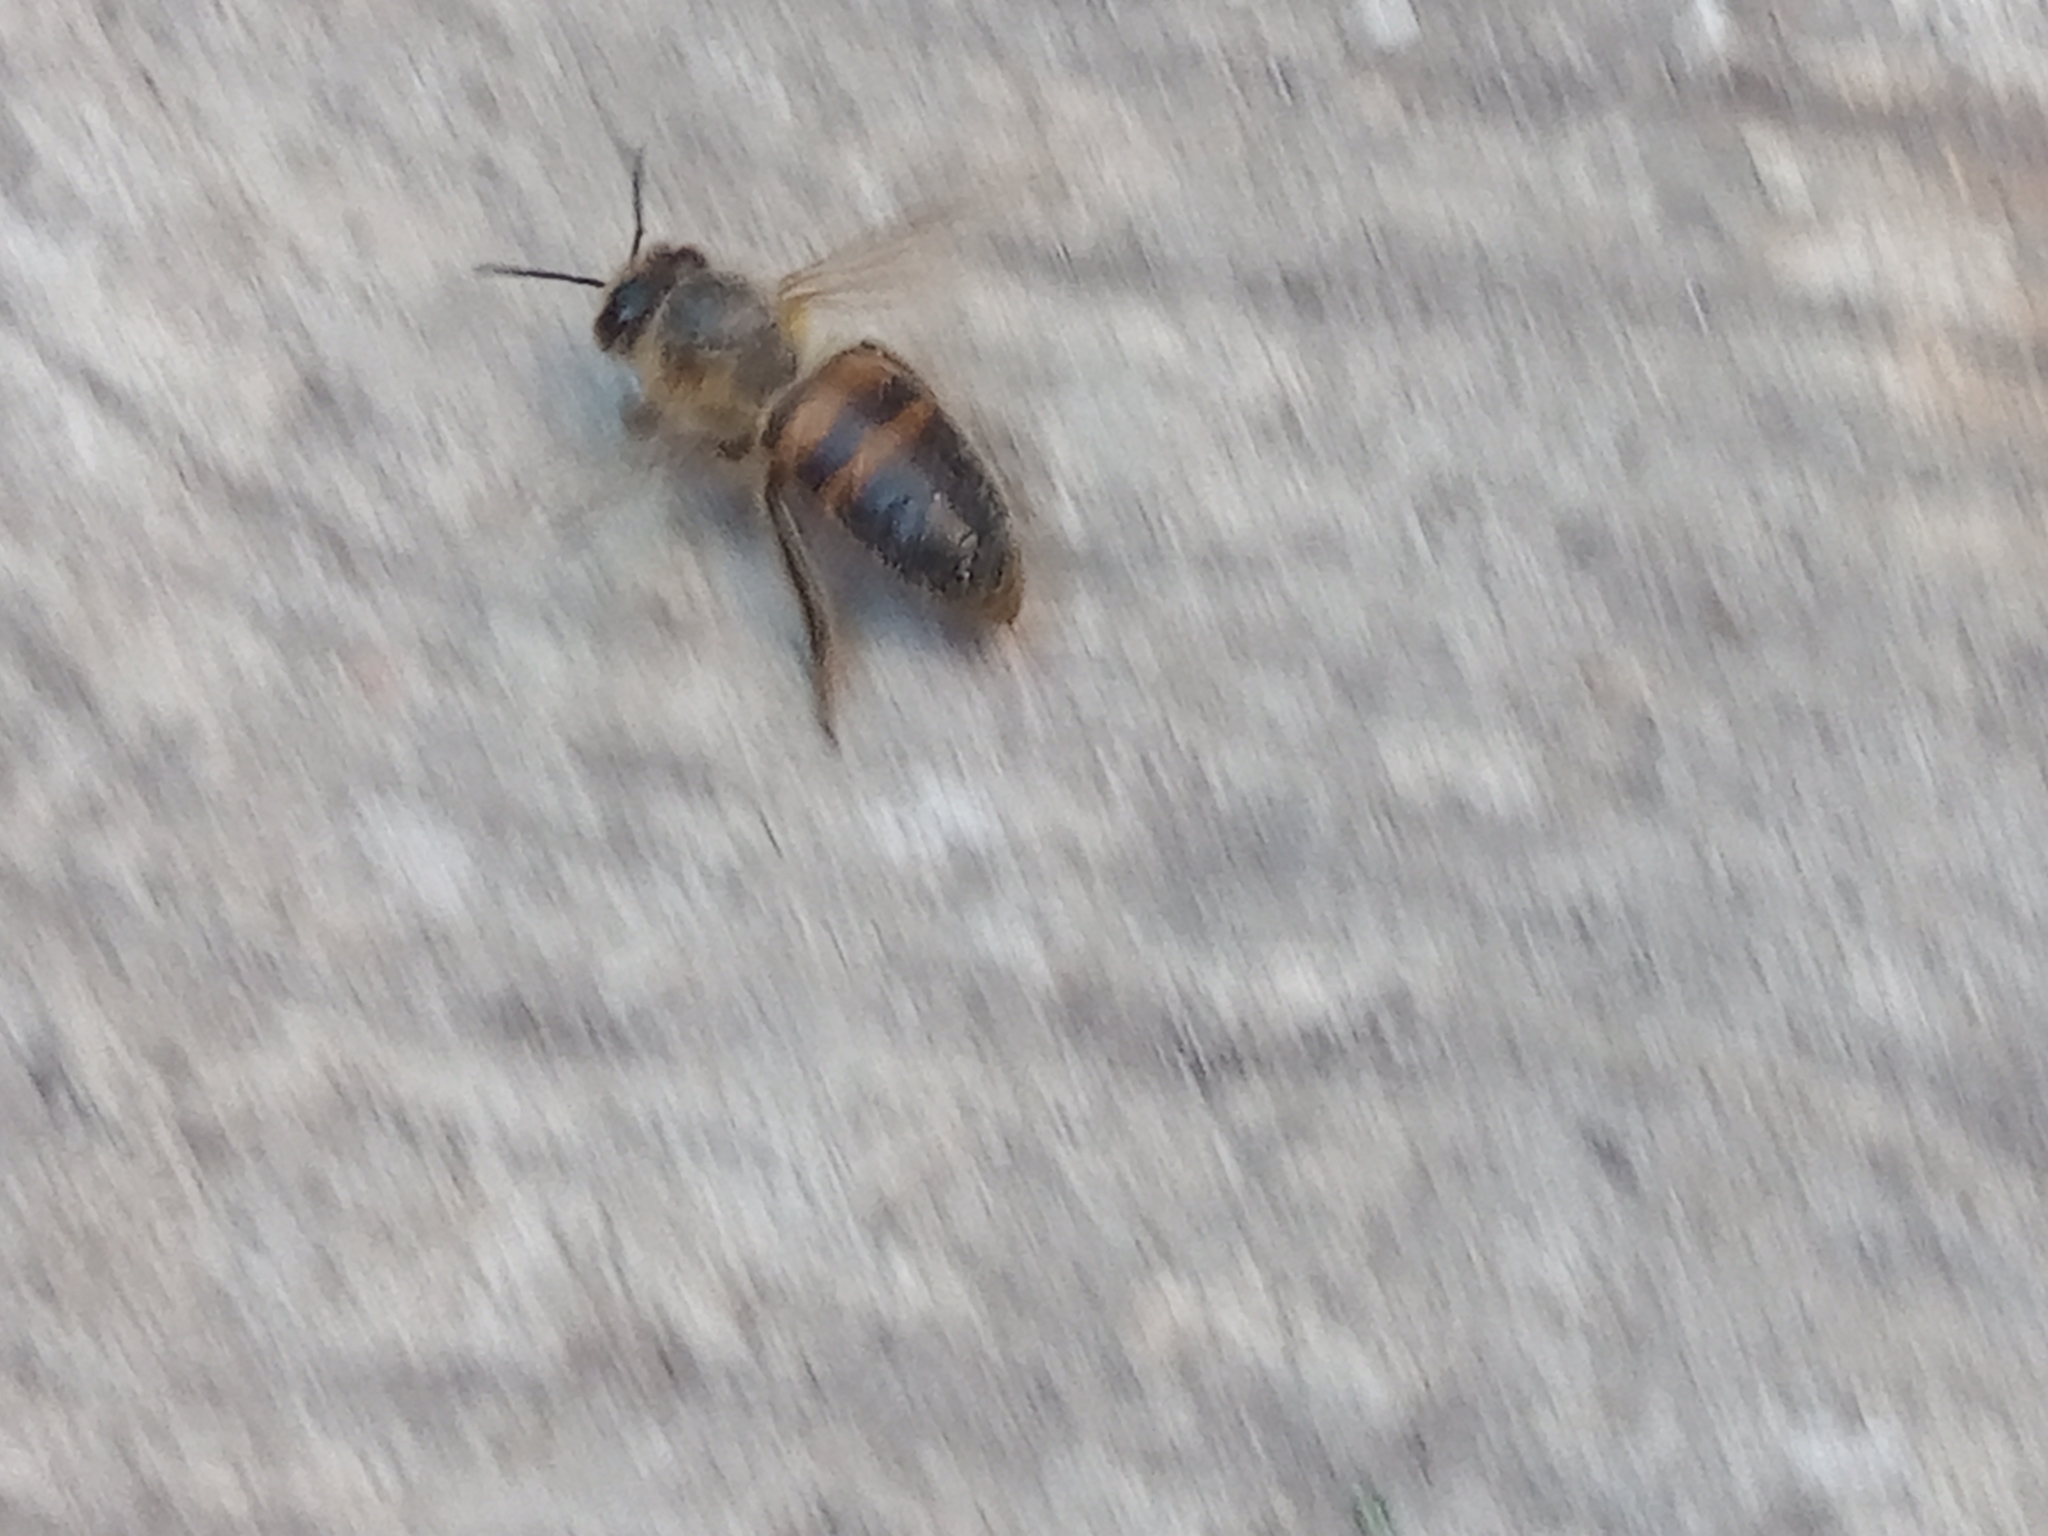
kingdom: Animalia
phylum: Arthropoda
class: Insecta
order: Hymenoptera
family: Apidae
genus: Apis
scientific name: Apis mellifera
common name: Honey bee
